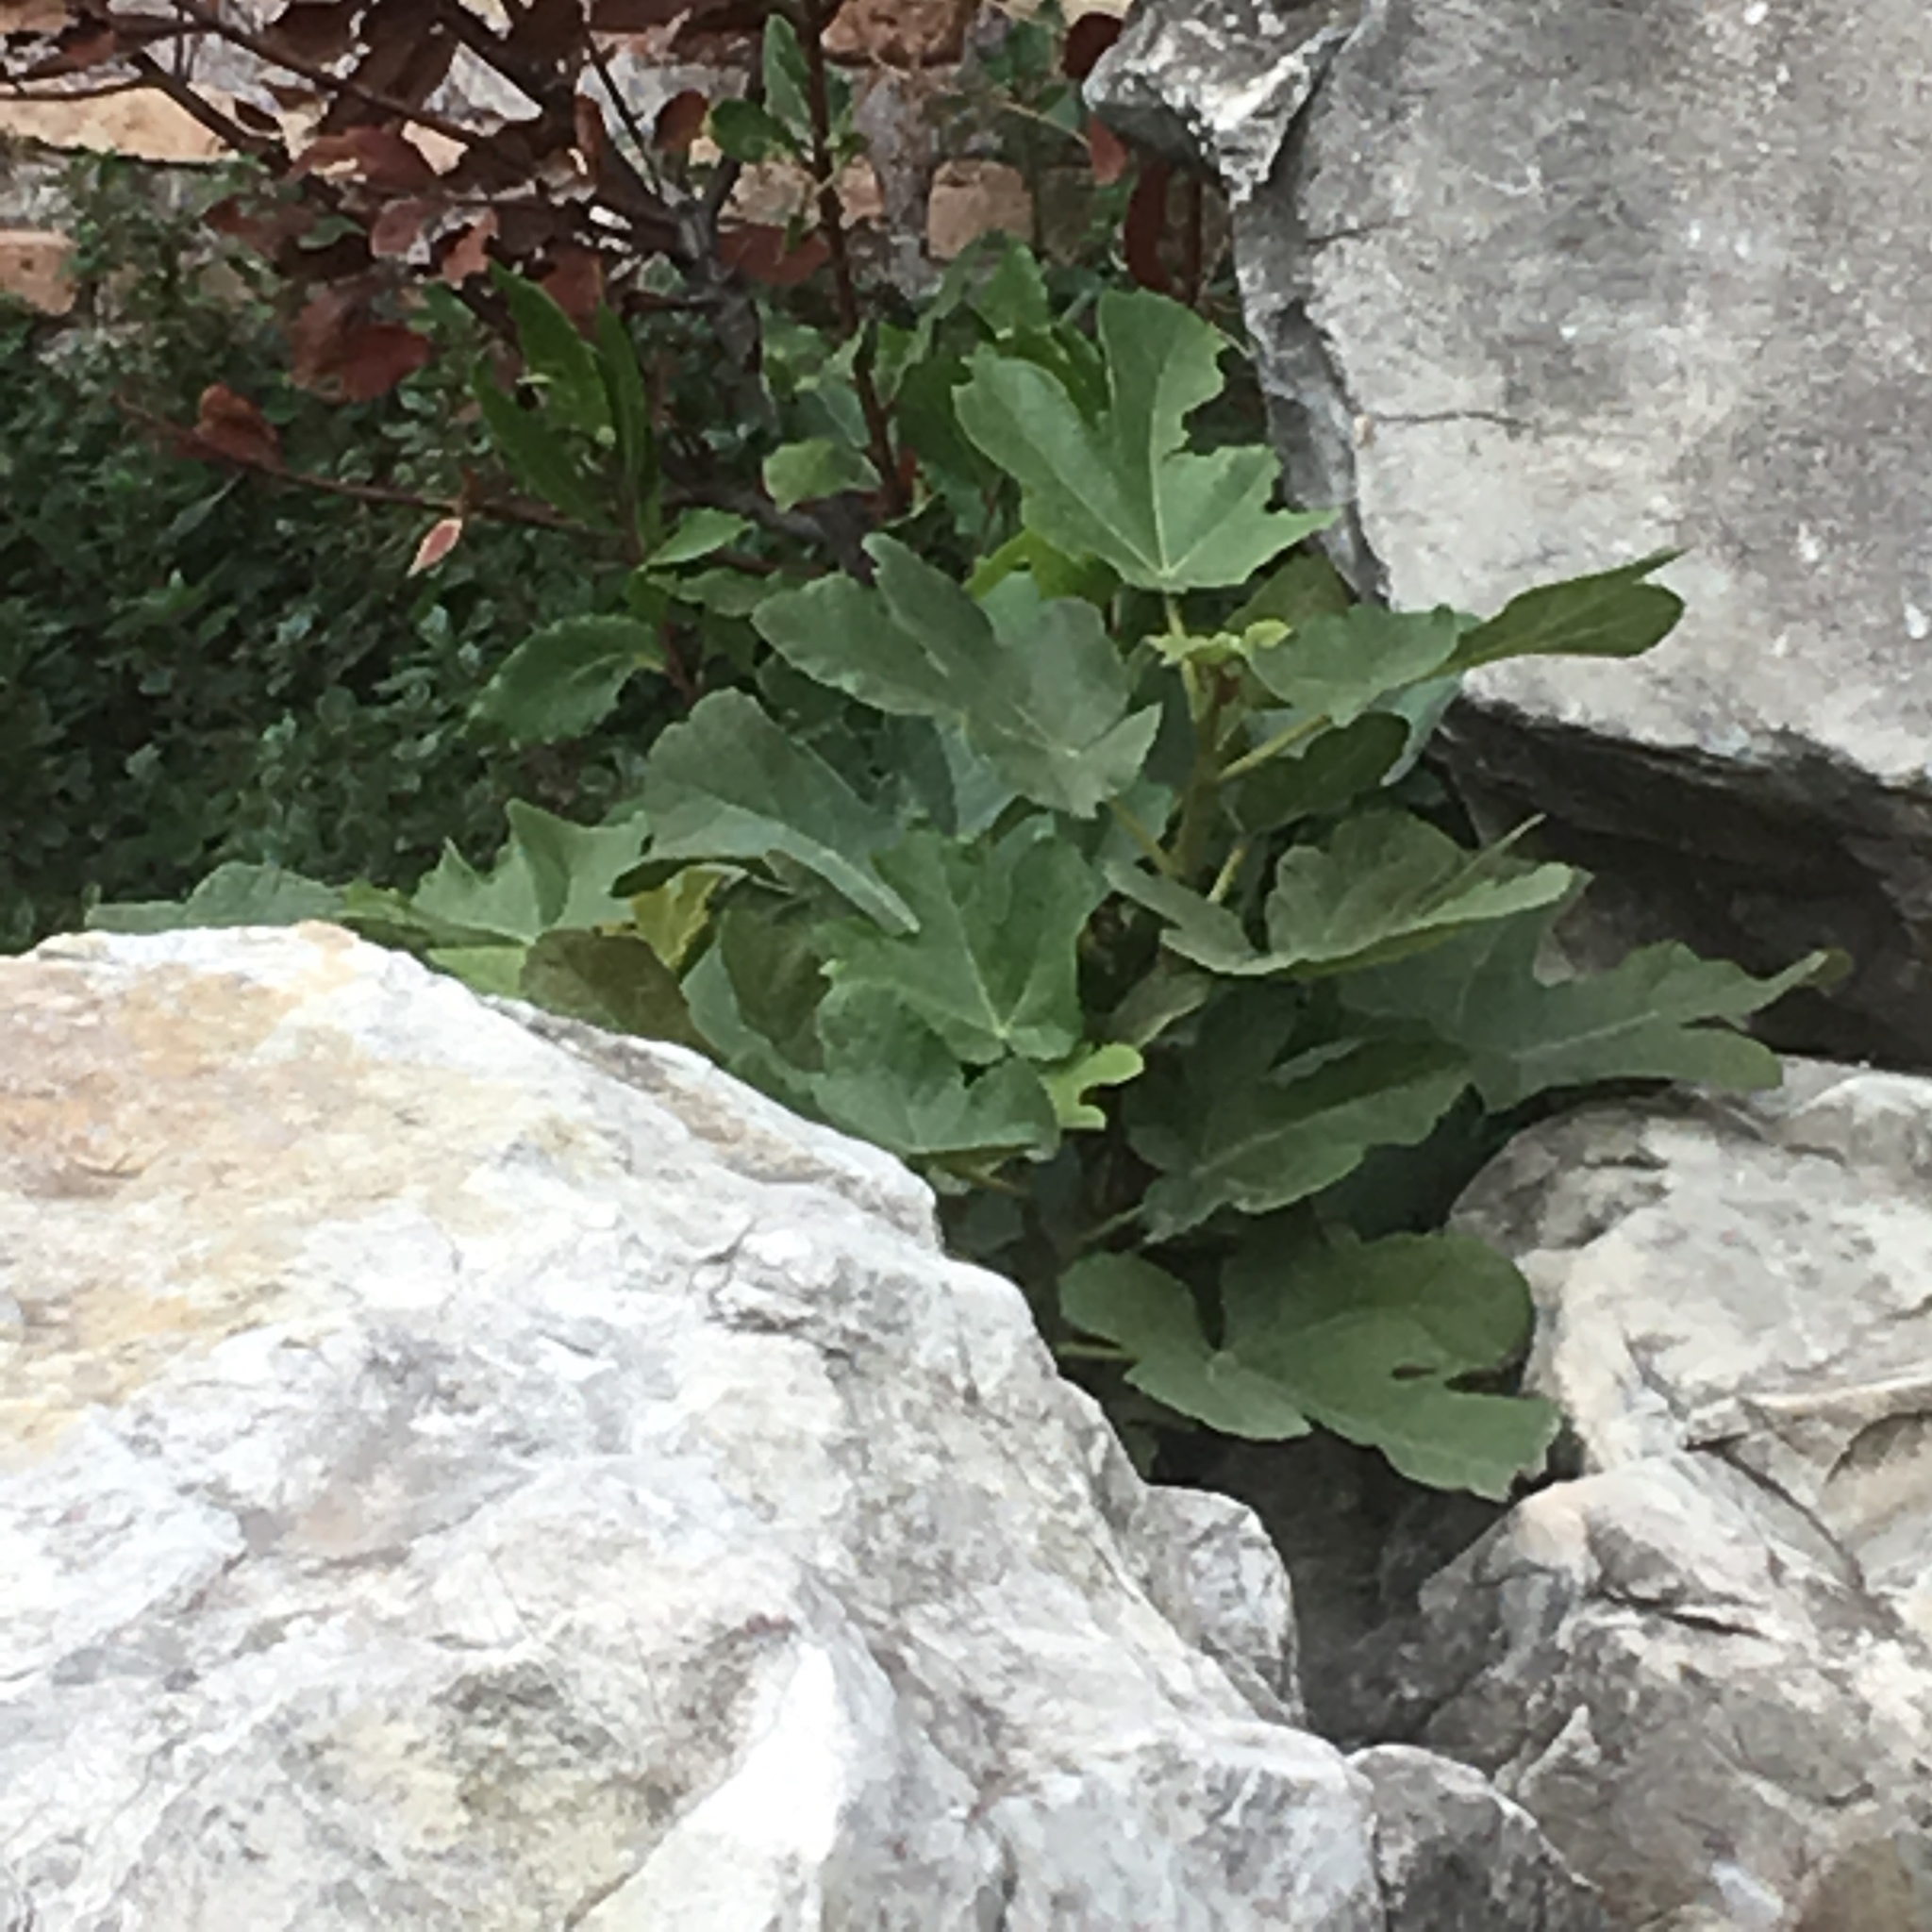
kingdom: Plantae
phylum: Tracheophyta
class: Magnoliopsida
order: Rosales
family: Moraceae
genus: Ficus
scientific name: Ficus carica
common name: Fig
